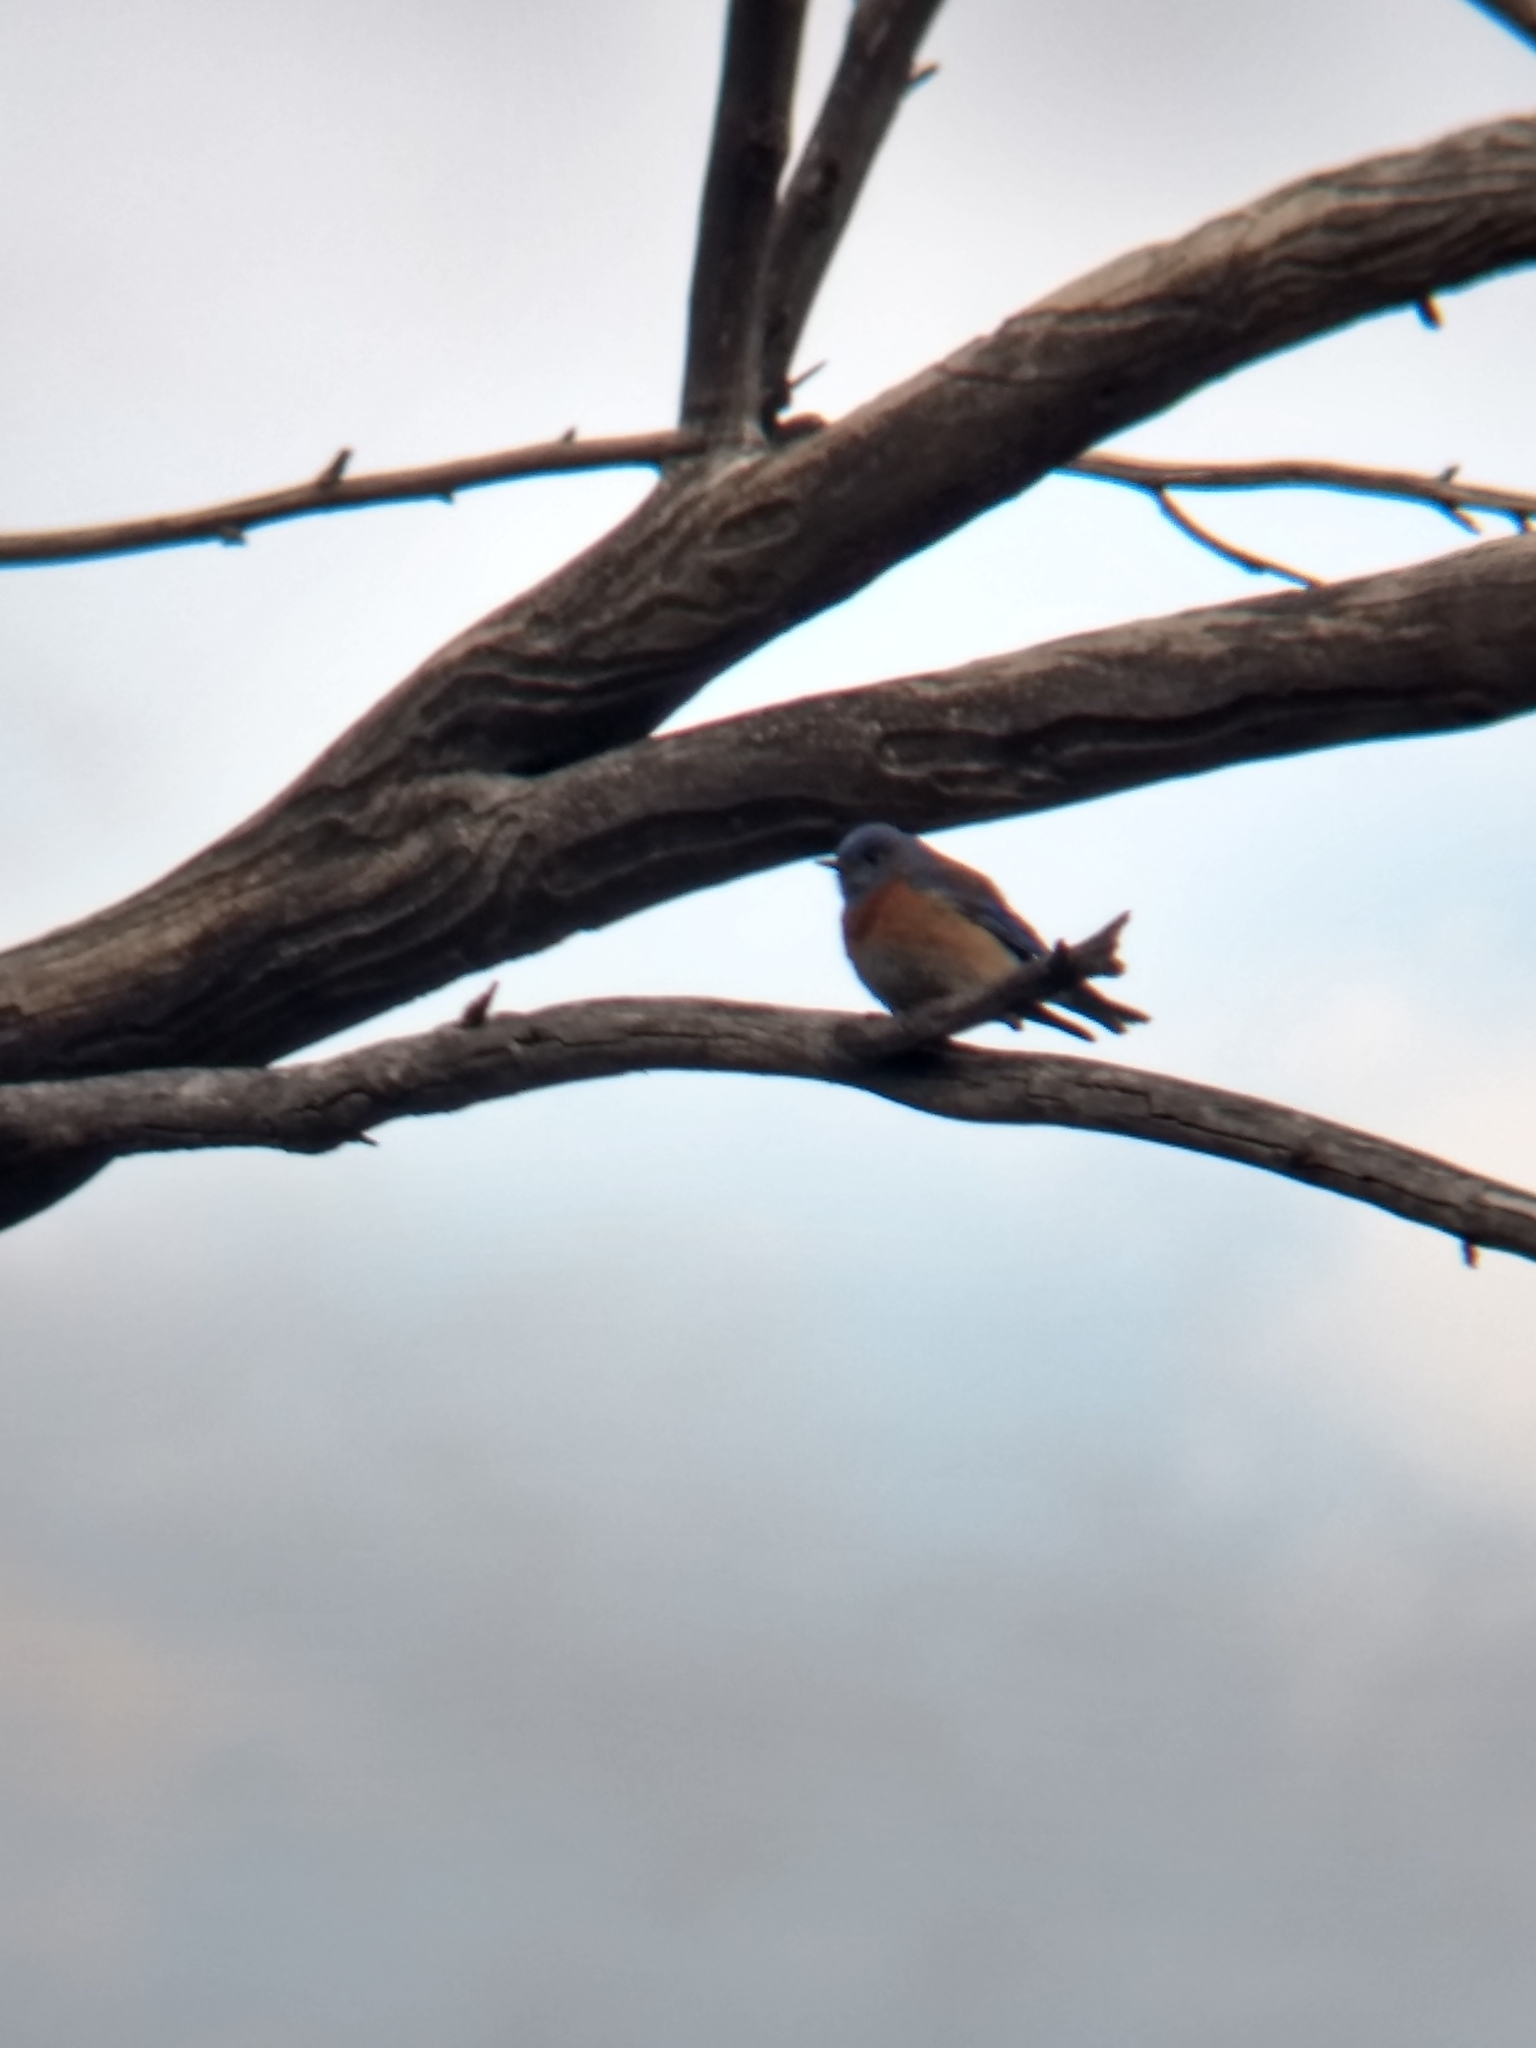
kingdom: Animalia
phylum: Chordata
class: Aves
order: Passeriformes
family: Turdidae
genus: Sialia
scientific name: Sialia mexicana
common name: Western bluebird
